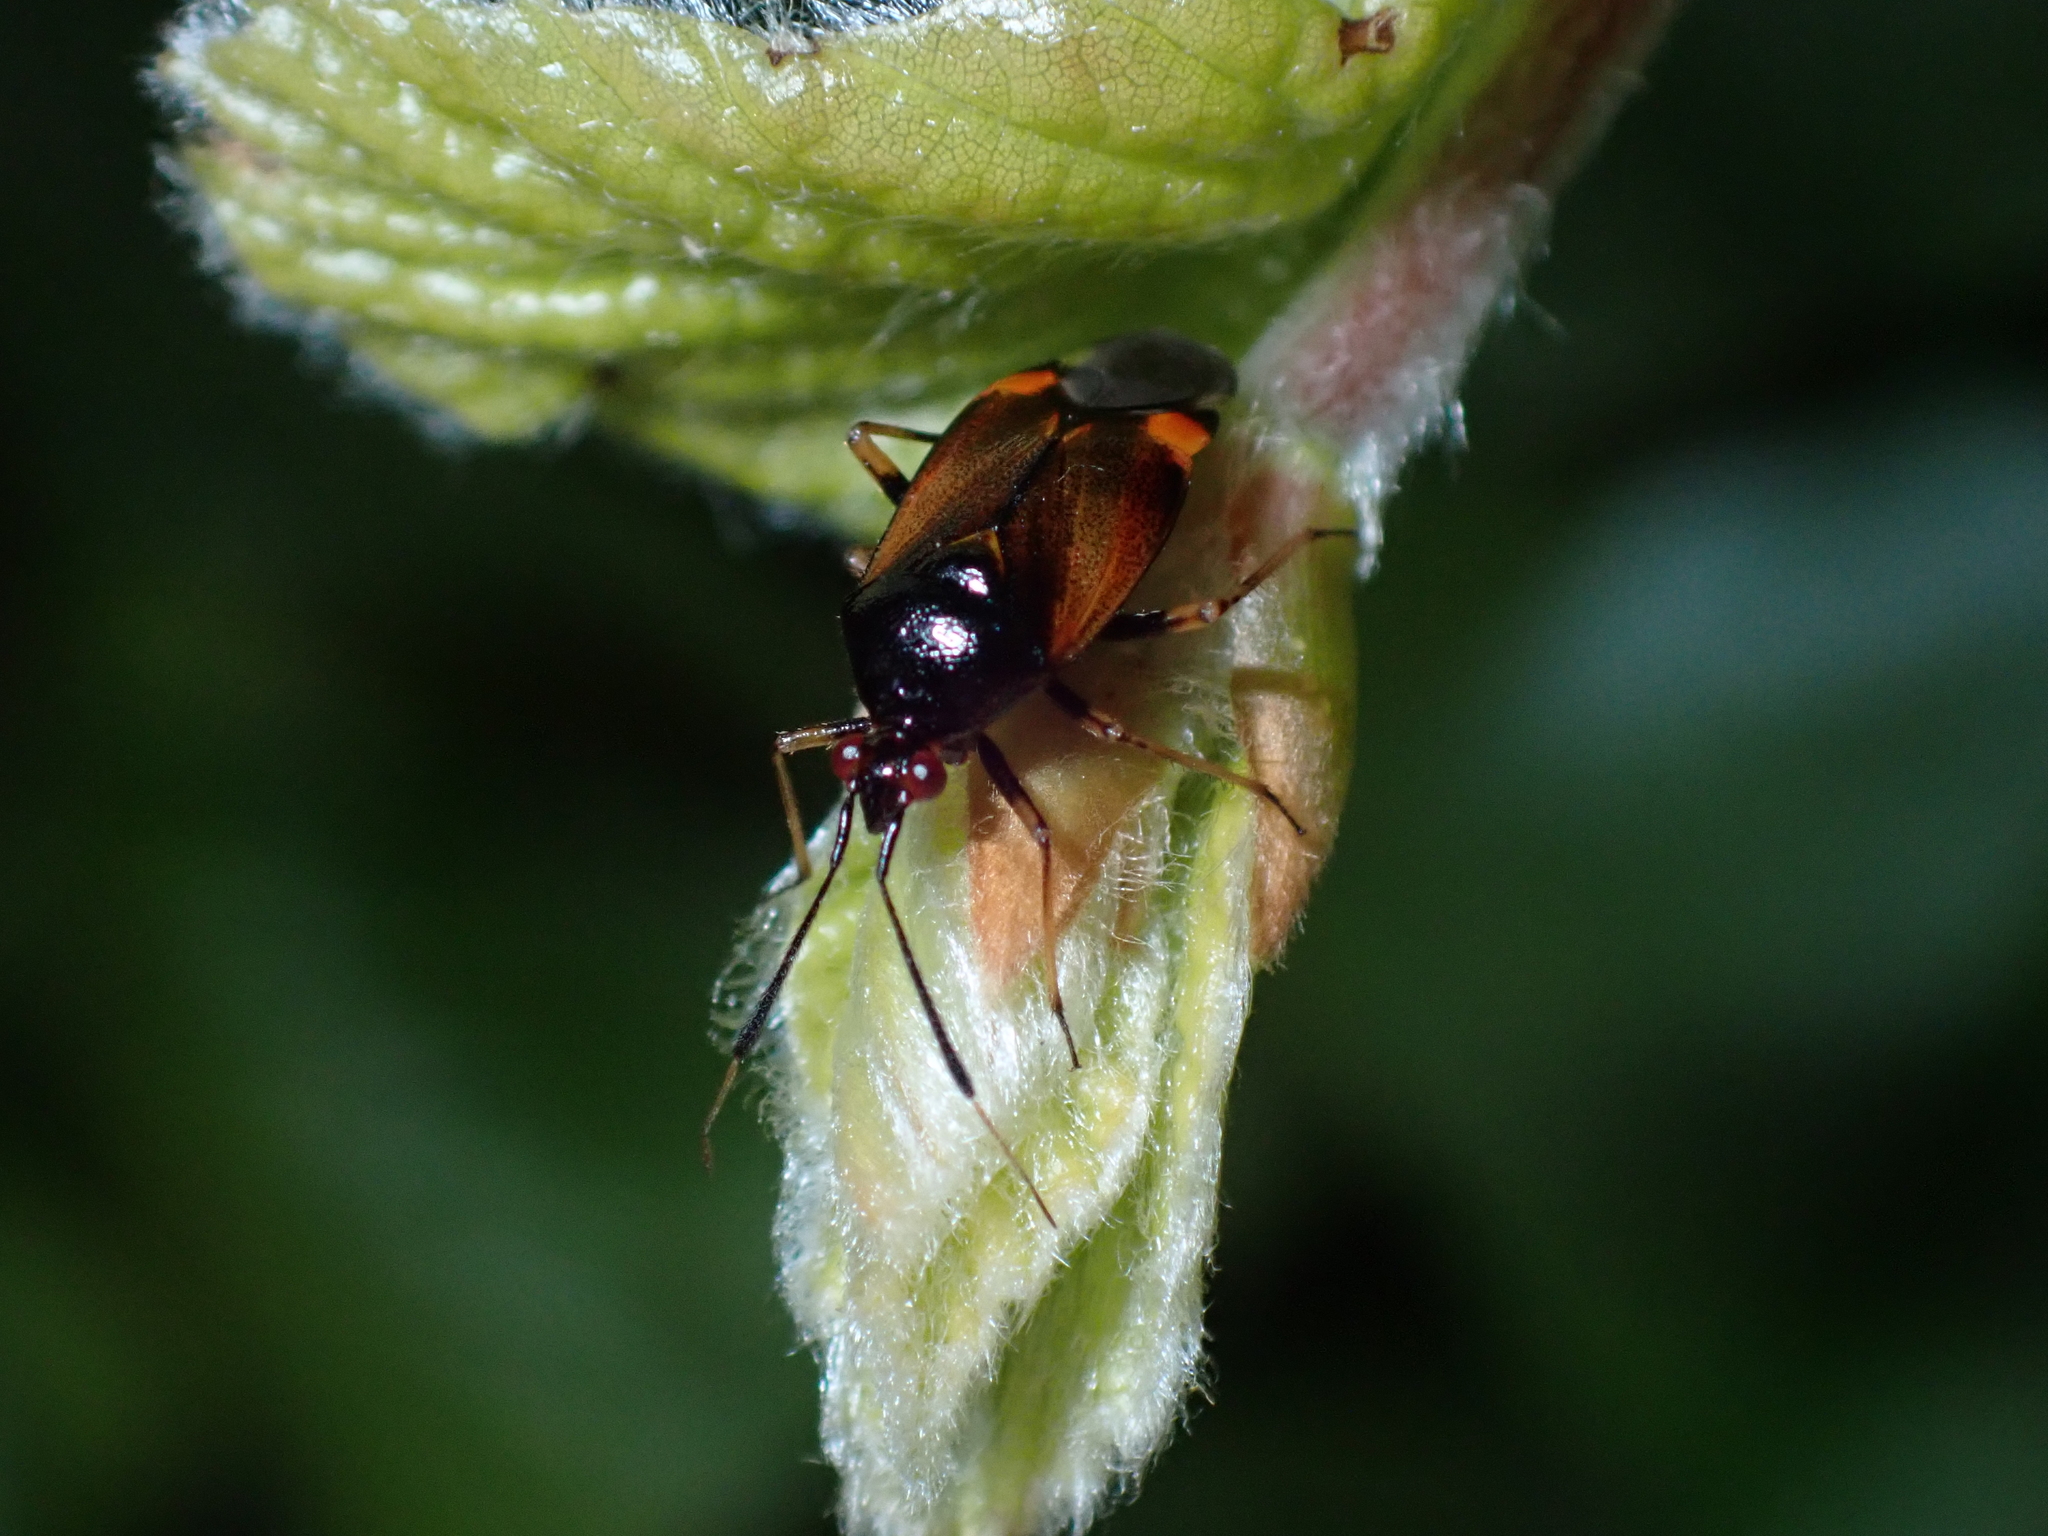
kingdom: Animalia
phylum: Arthropoda
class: Insecta
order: Hemiptera
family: Miridae
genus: Deraeocoris
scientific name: Deraeocoris ruber
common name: Plant bug
